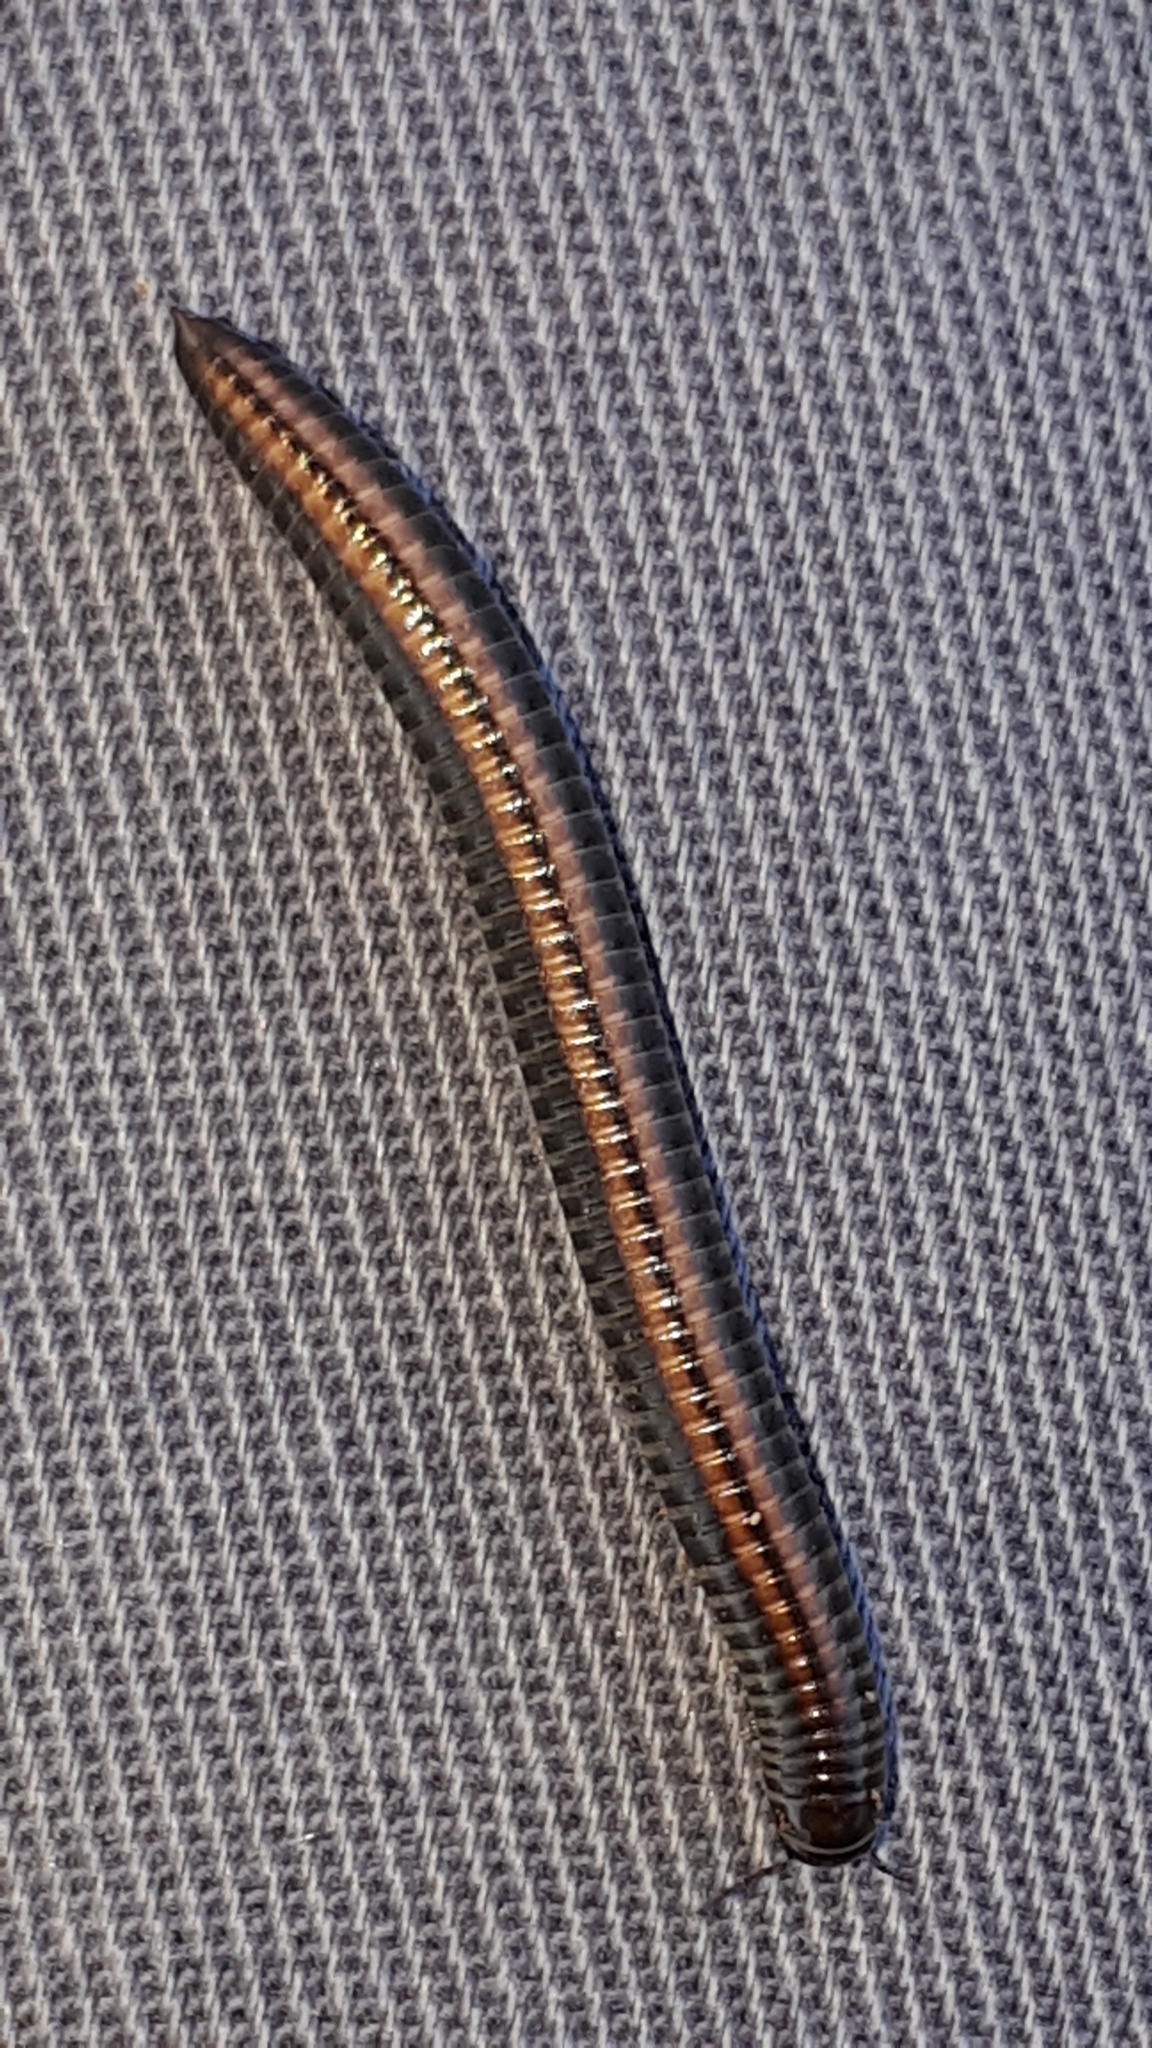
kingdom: Animalia
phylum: Arthropoda
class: Diplopoda
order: Julida
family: Julidae
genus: Ommatoiulus
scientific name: Ommatoiulus sabulosus
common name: Striped millipede
